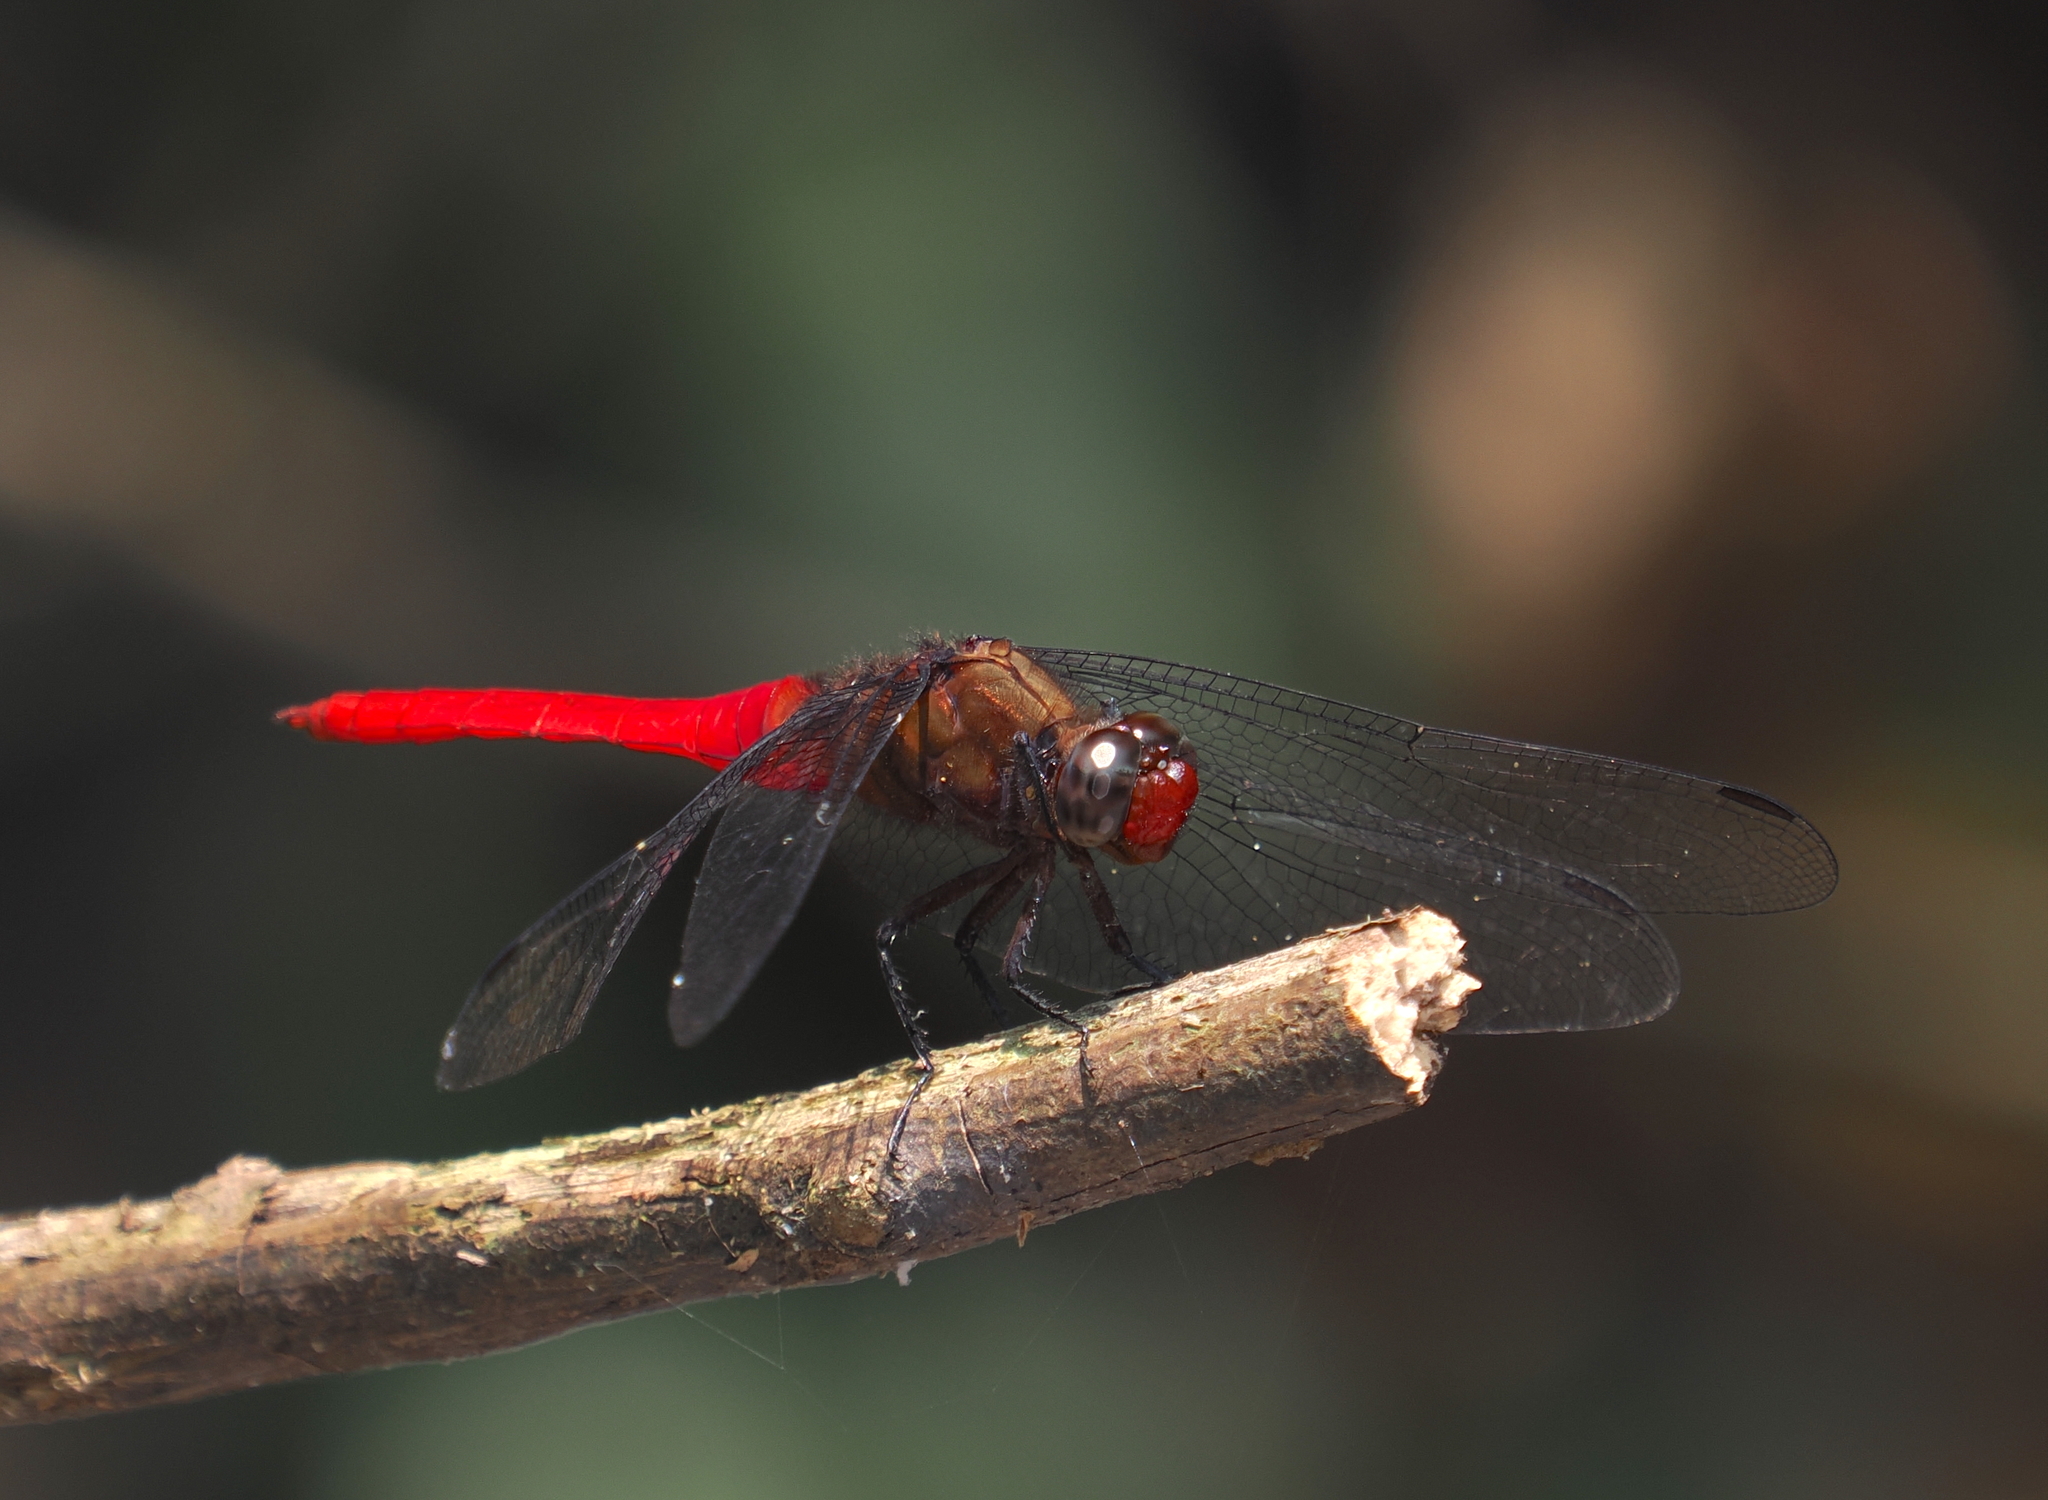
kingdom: Animalia
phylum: Arthropoda
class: Insecta
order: Odonata
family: Libellulidae
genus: Orthetrum
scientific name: Orthetrum chrysis
